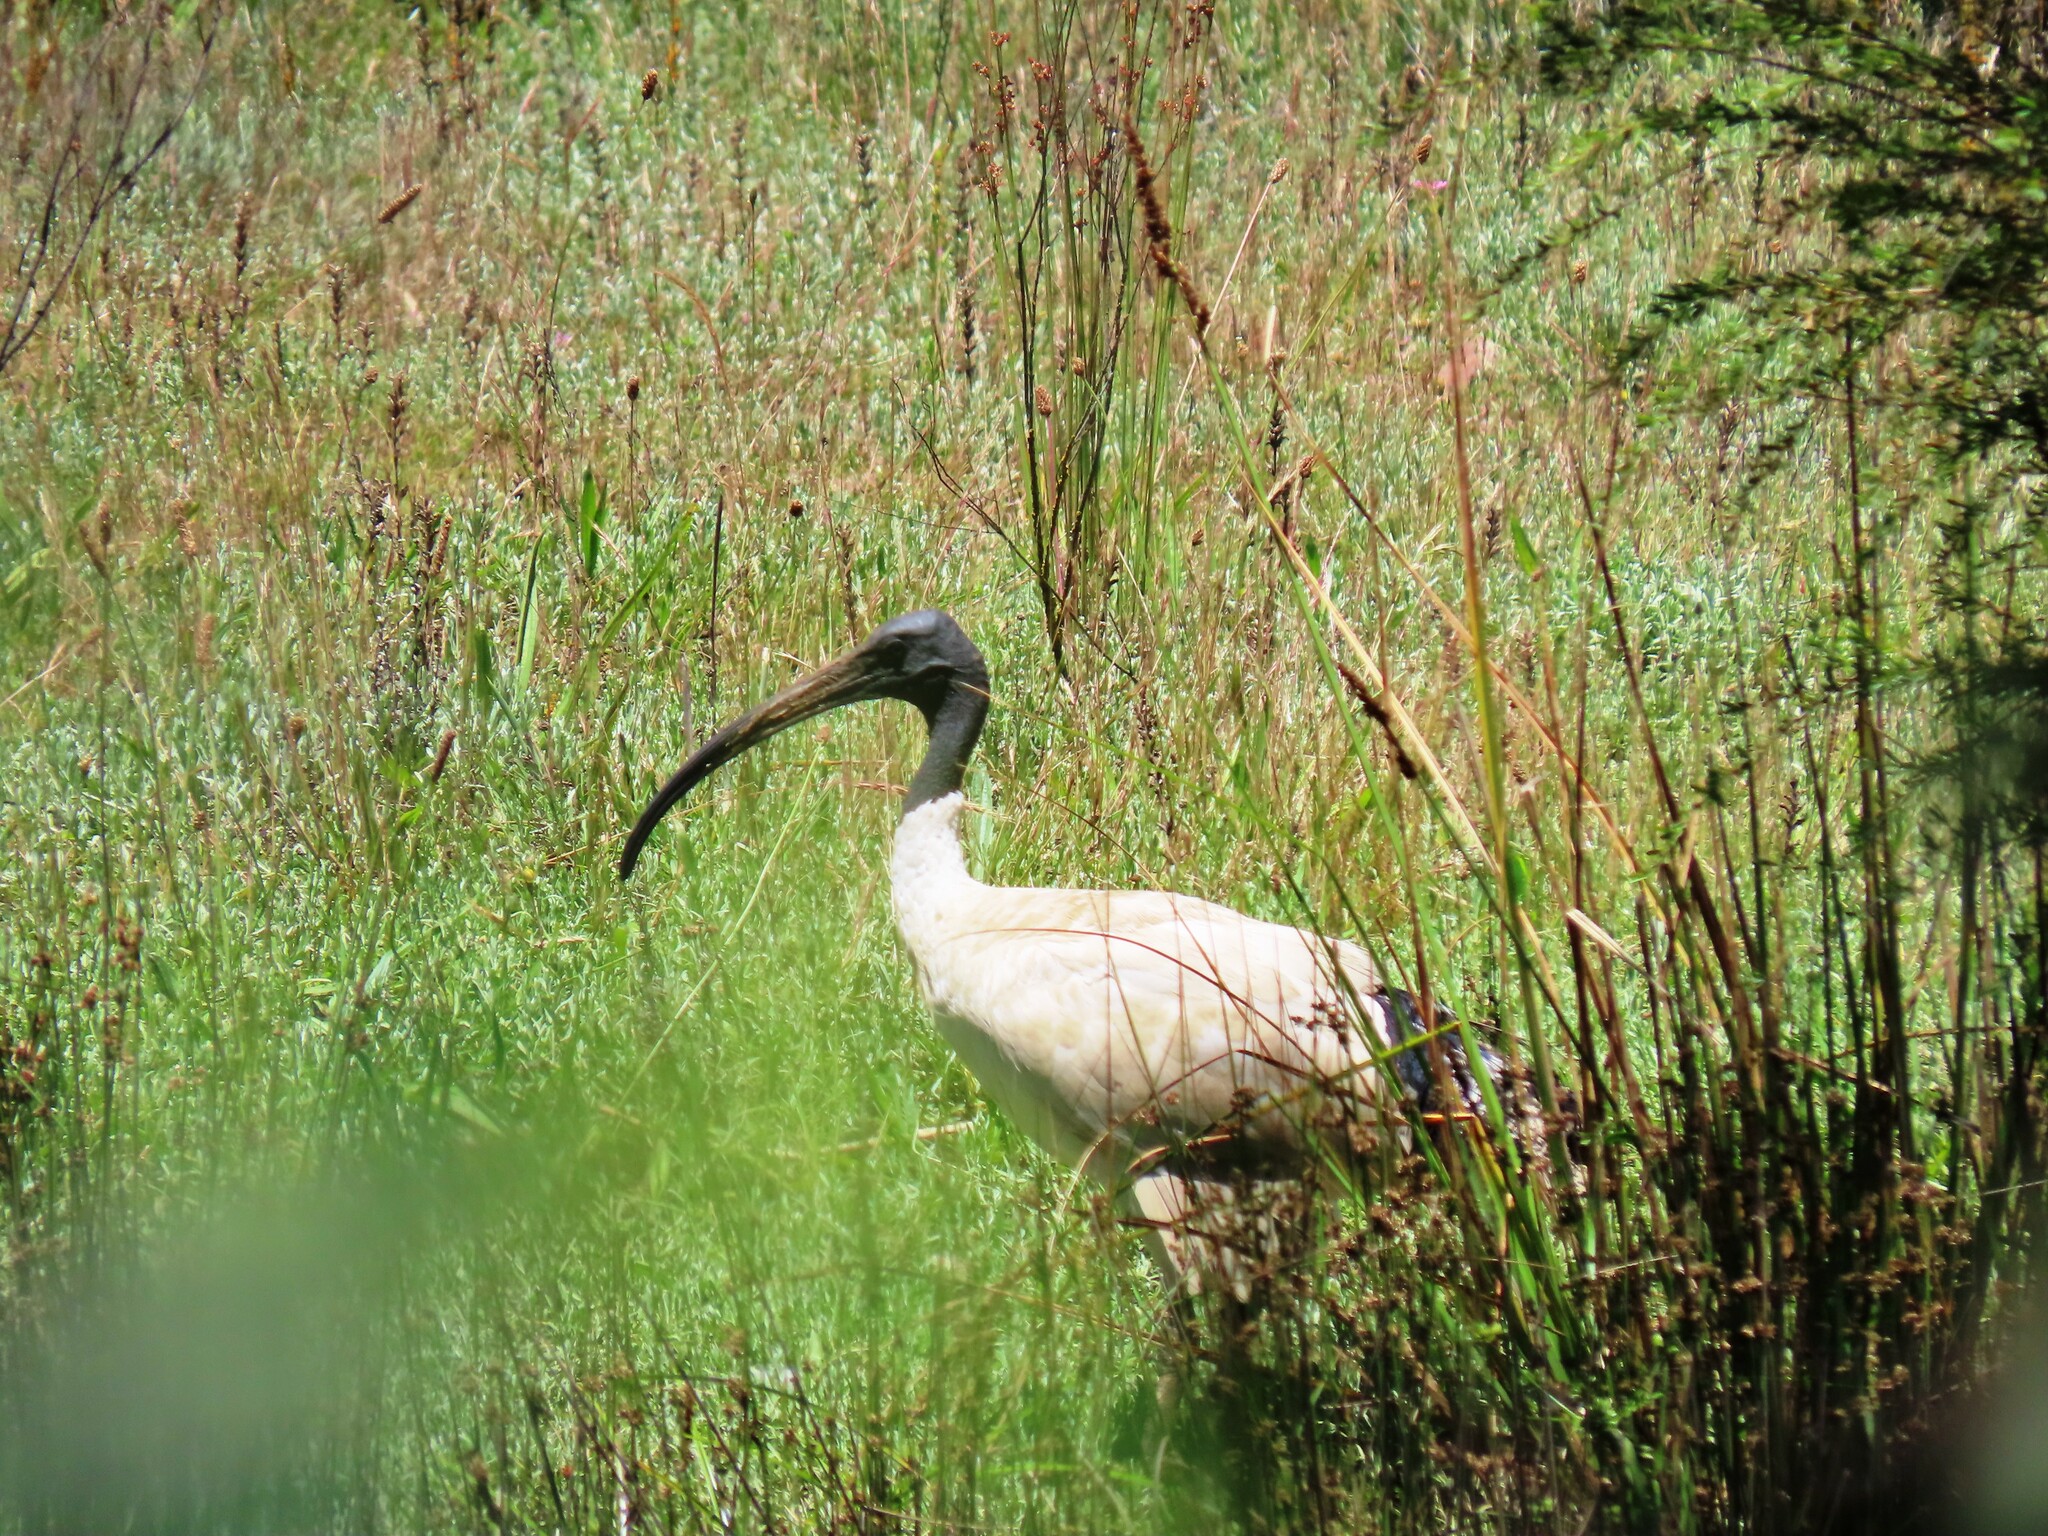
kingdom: Animalia
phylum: Chordata
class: Aves
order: Pelecaniformes
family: Threskiornithidae
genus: Threskiornis
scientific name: Threskiornis molucca
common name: Australian white ibis
